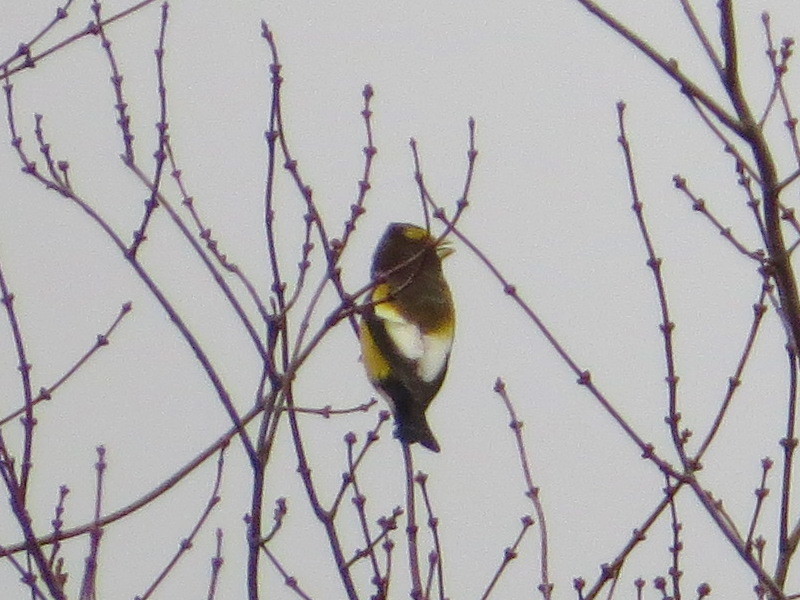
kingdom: Animalia
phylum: Chordata
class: Aves
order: Passeriformes
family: Fringillidae
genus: Hesperiphona
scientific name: Hesperiphona vespertina
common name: Evening grosbeak
